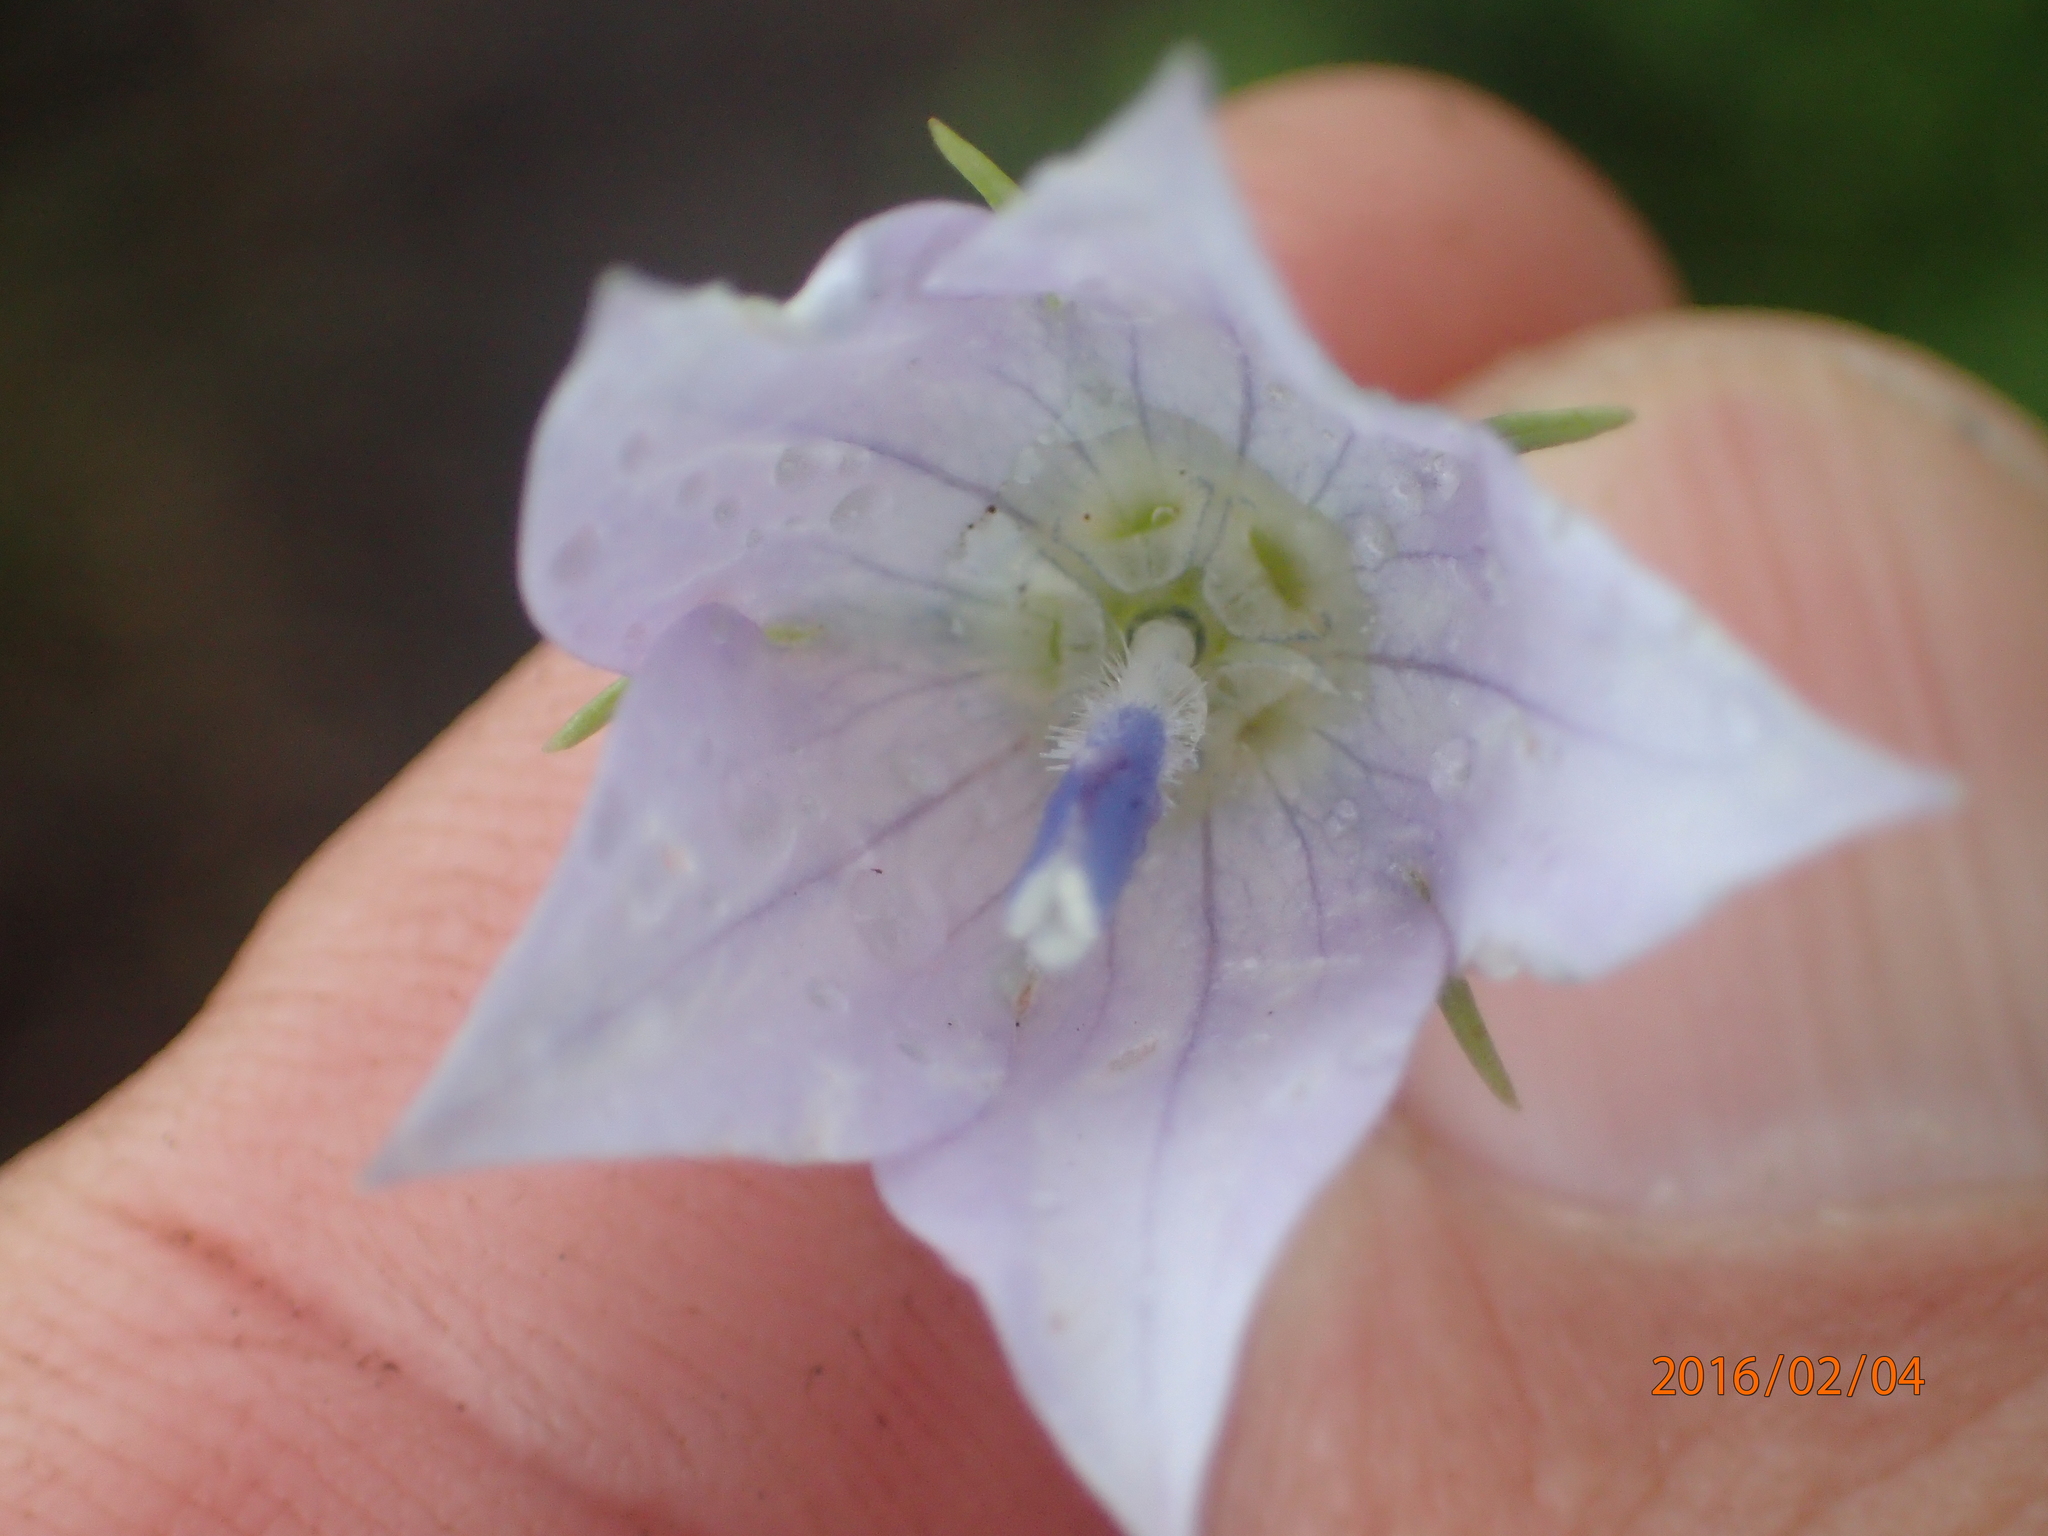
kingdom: Plantae
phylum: Tracheophyta
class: Magnoliopsida
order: Asterales
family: Campanulaceae
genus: Wahlenbergia
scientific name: Wahlenbergia cuspidata
